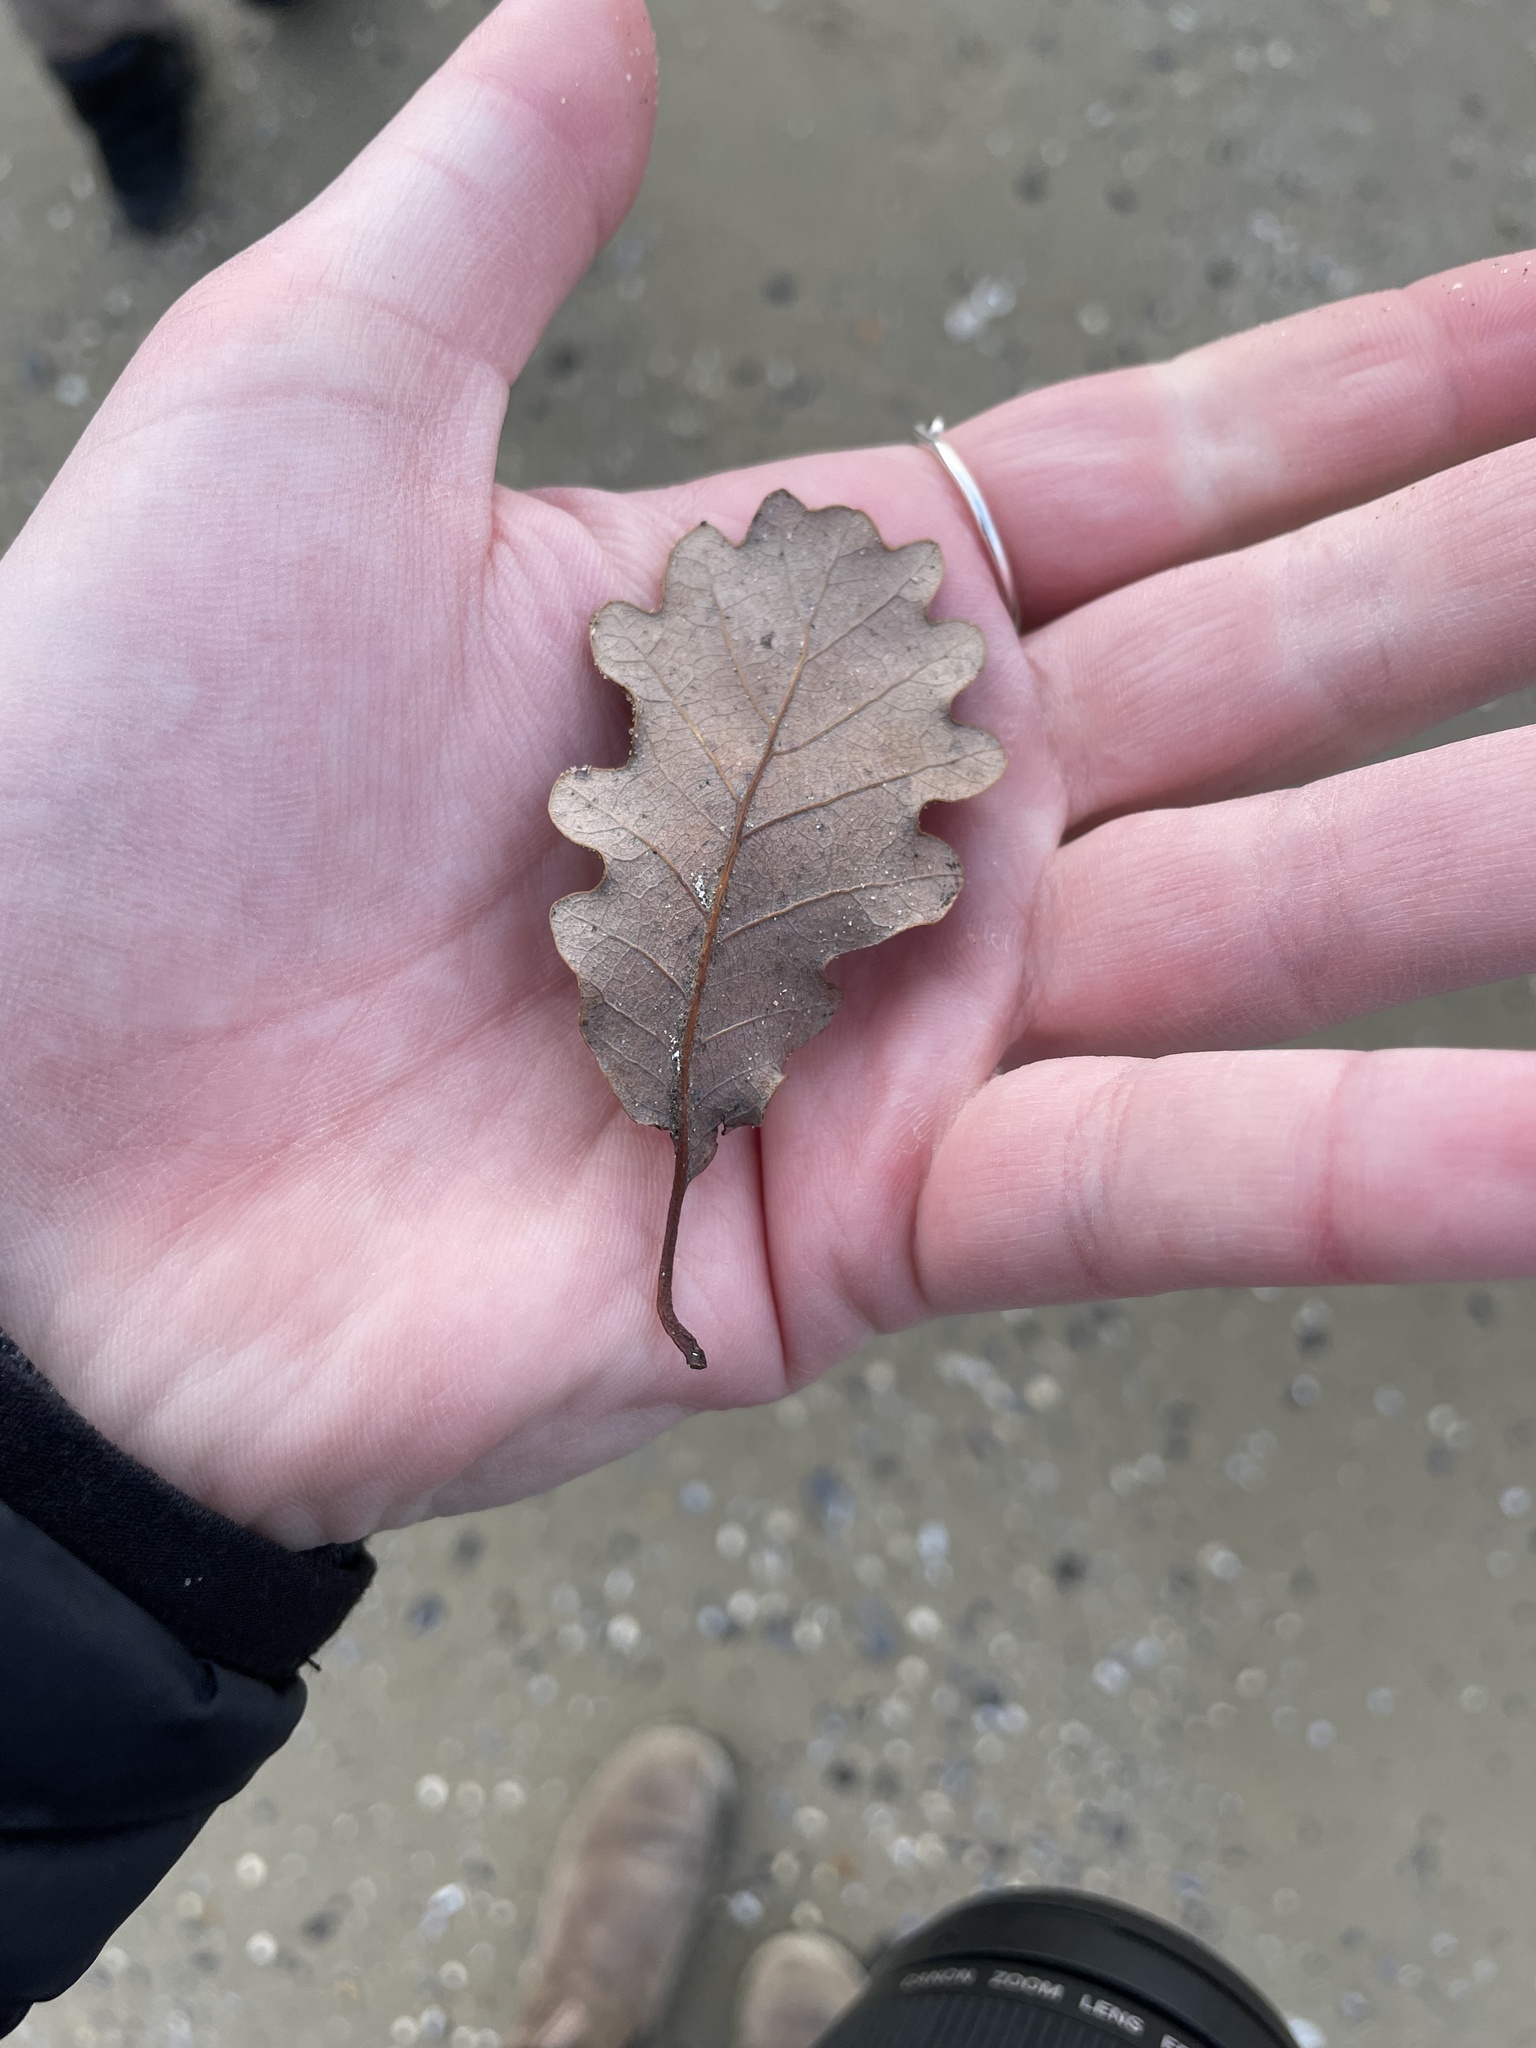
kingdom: Plantae
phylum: Tracheophyta
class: Magnoliopsida
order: Fagales
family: Fagaceae
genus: Quercus
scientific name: Quercus pubescens
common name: Downy oak
